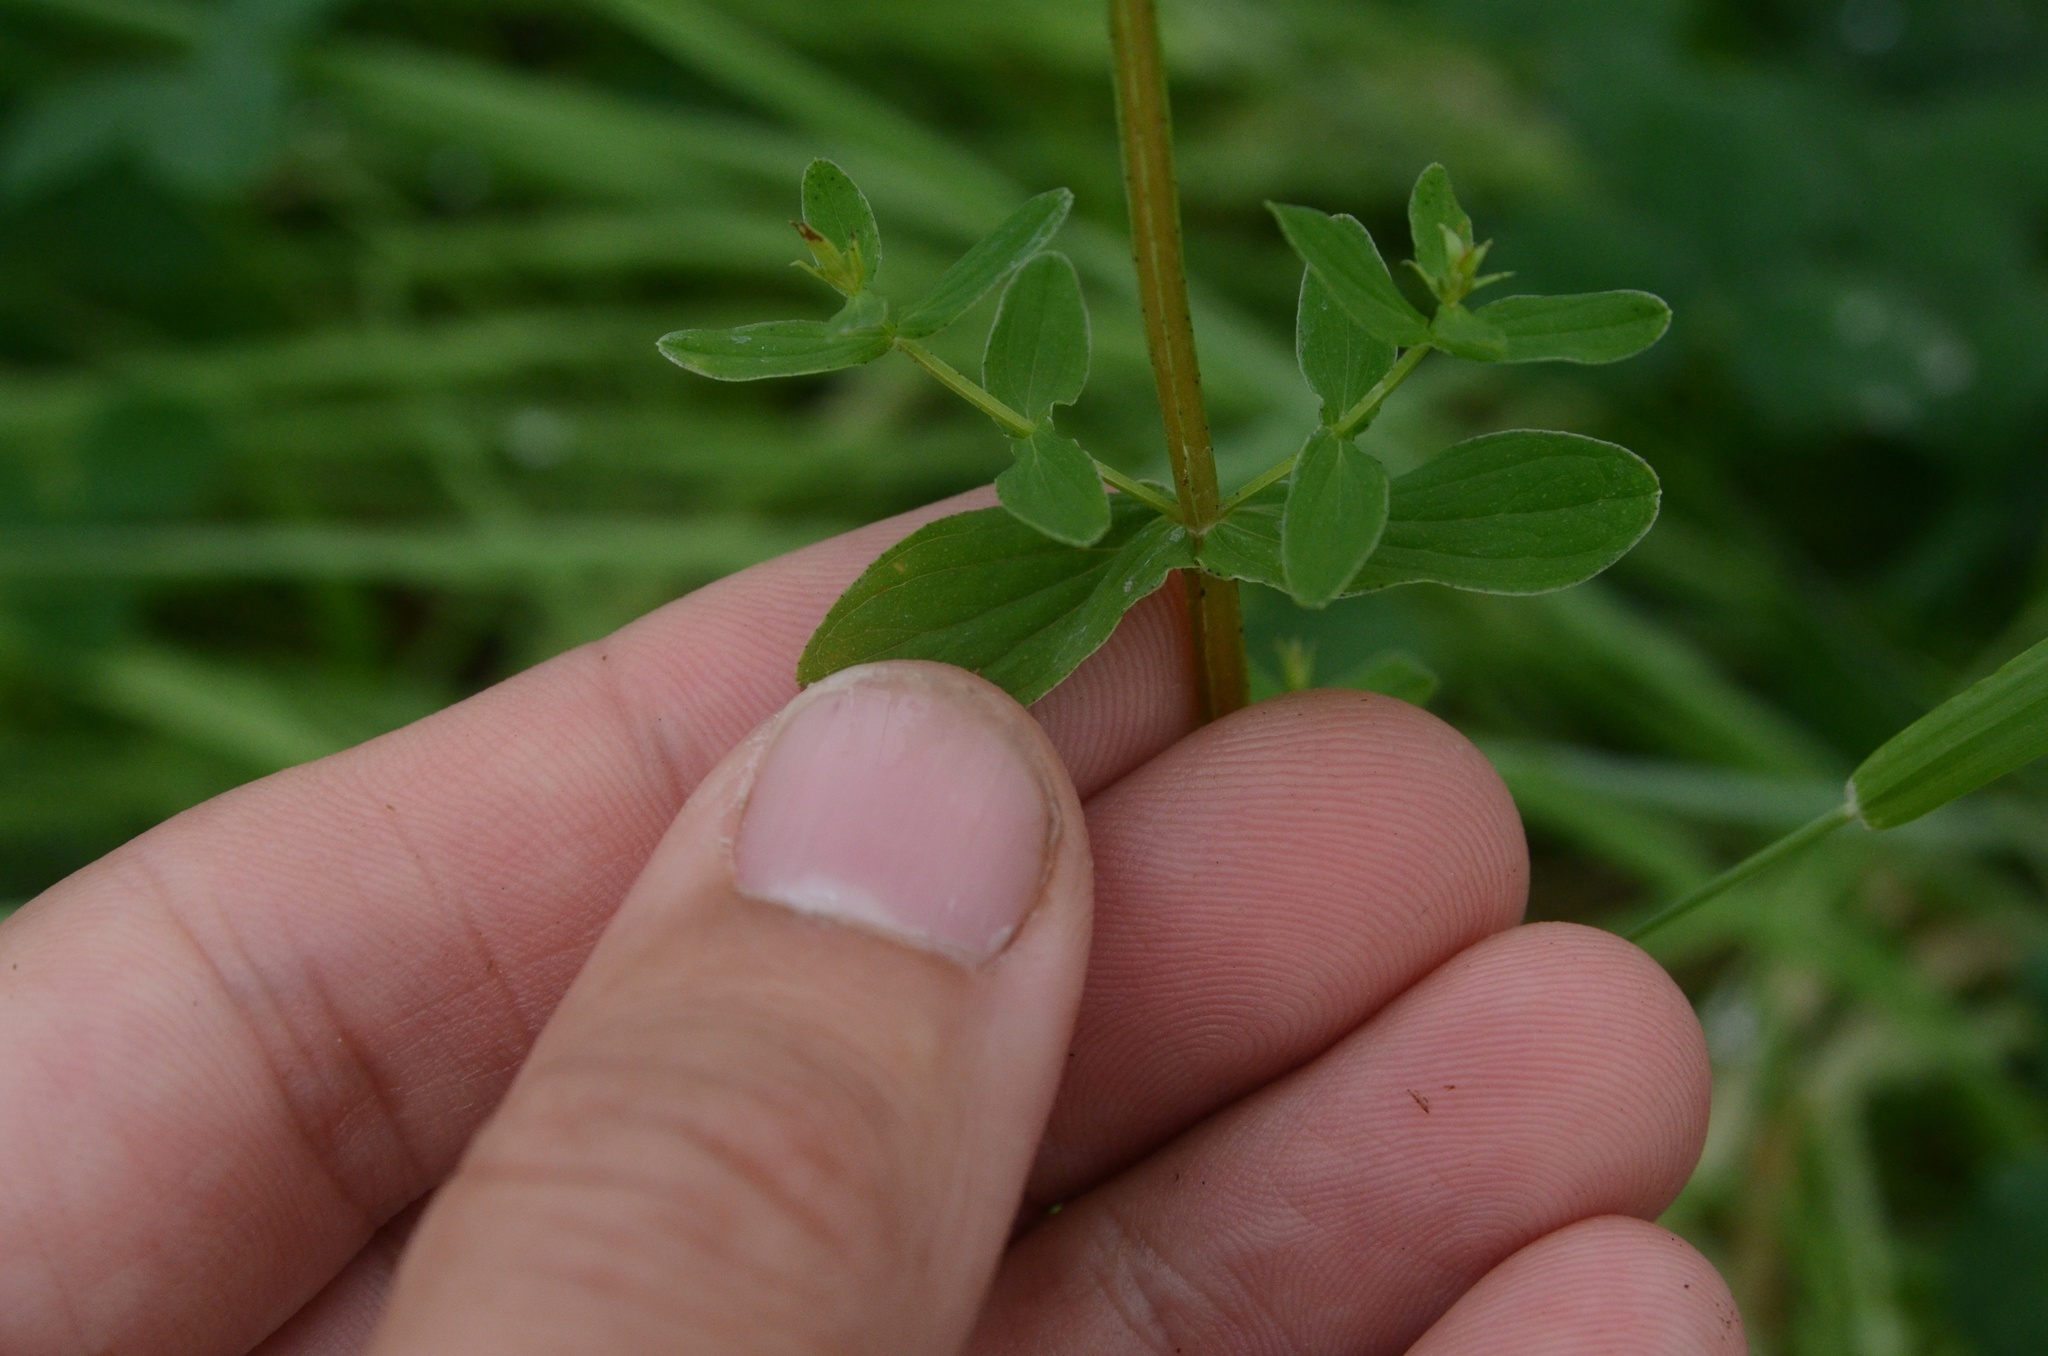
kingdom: Plantae
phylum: Tracheophyta
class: Magnoliopsida
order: Malpighiales
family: Hypericaceae
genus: Hypericum
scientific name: Hypericum perforatum
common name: Common st. johnswort
